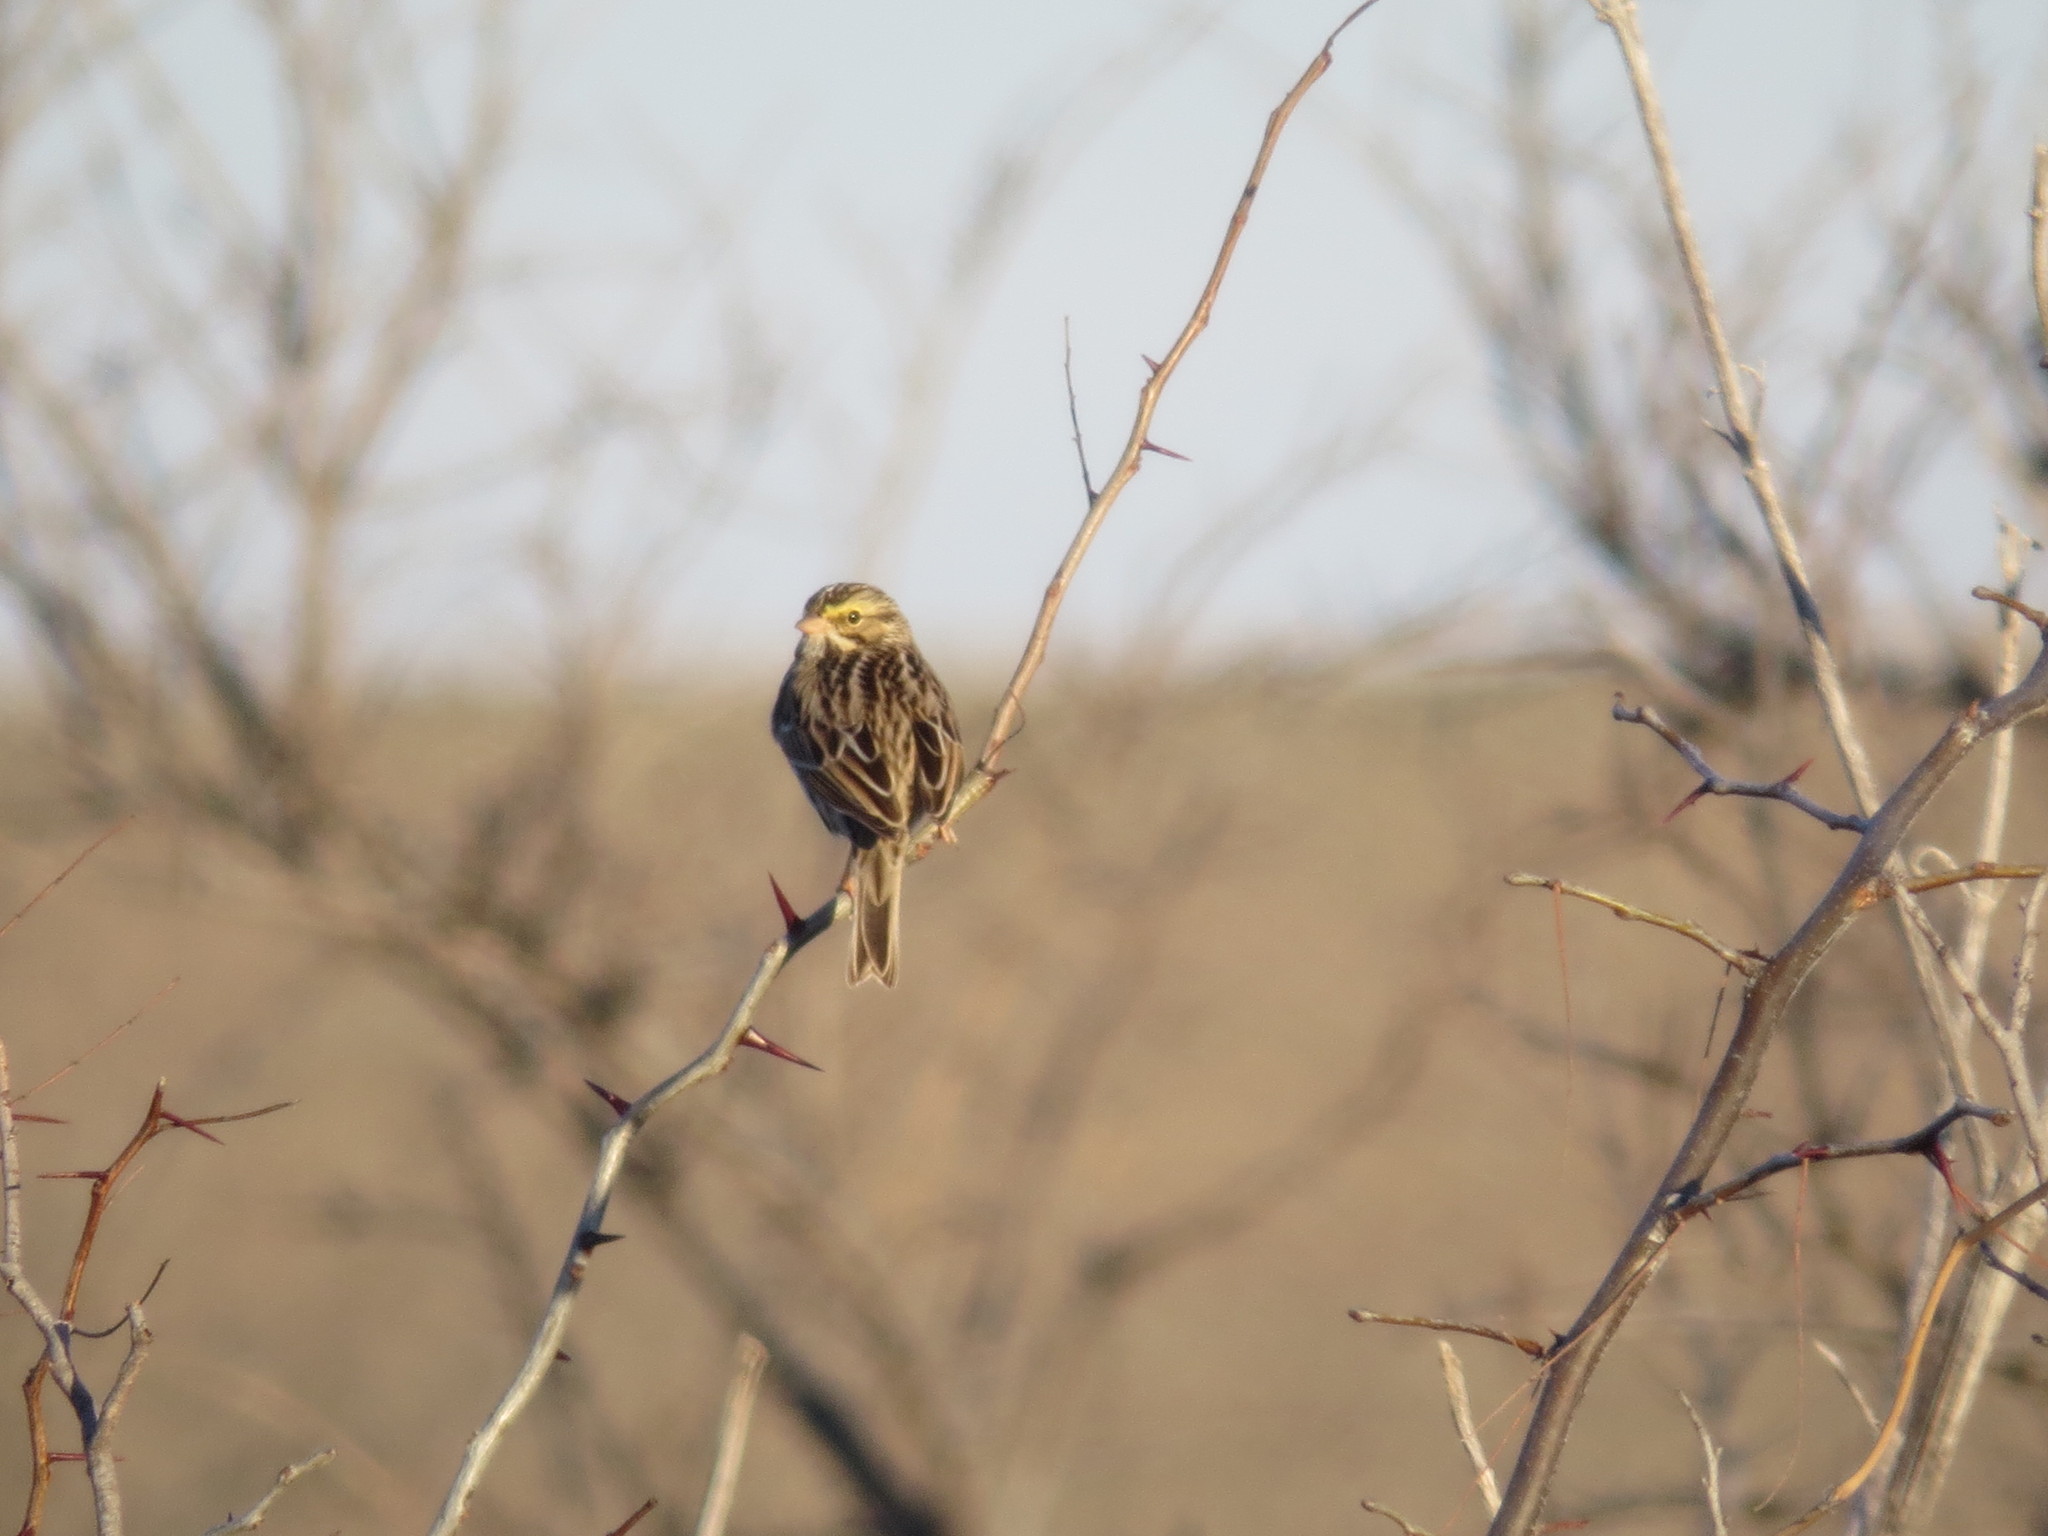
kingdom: Animalia
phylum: Chordata
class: Aves
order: Passeriformes
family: Passerellidae
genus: Passerculus
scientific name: Passerculus sandwichensis
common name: Savannah sparrow
